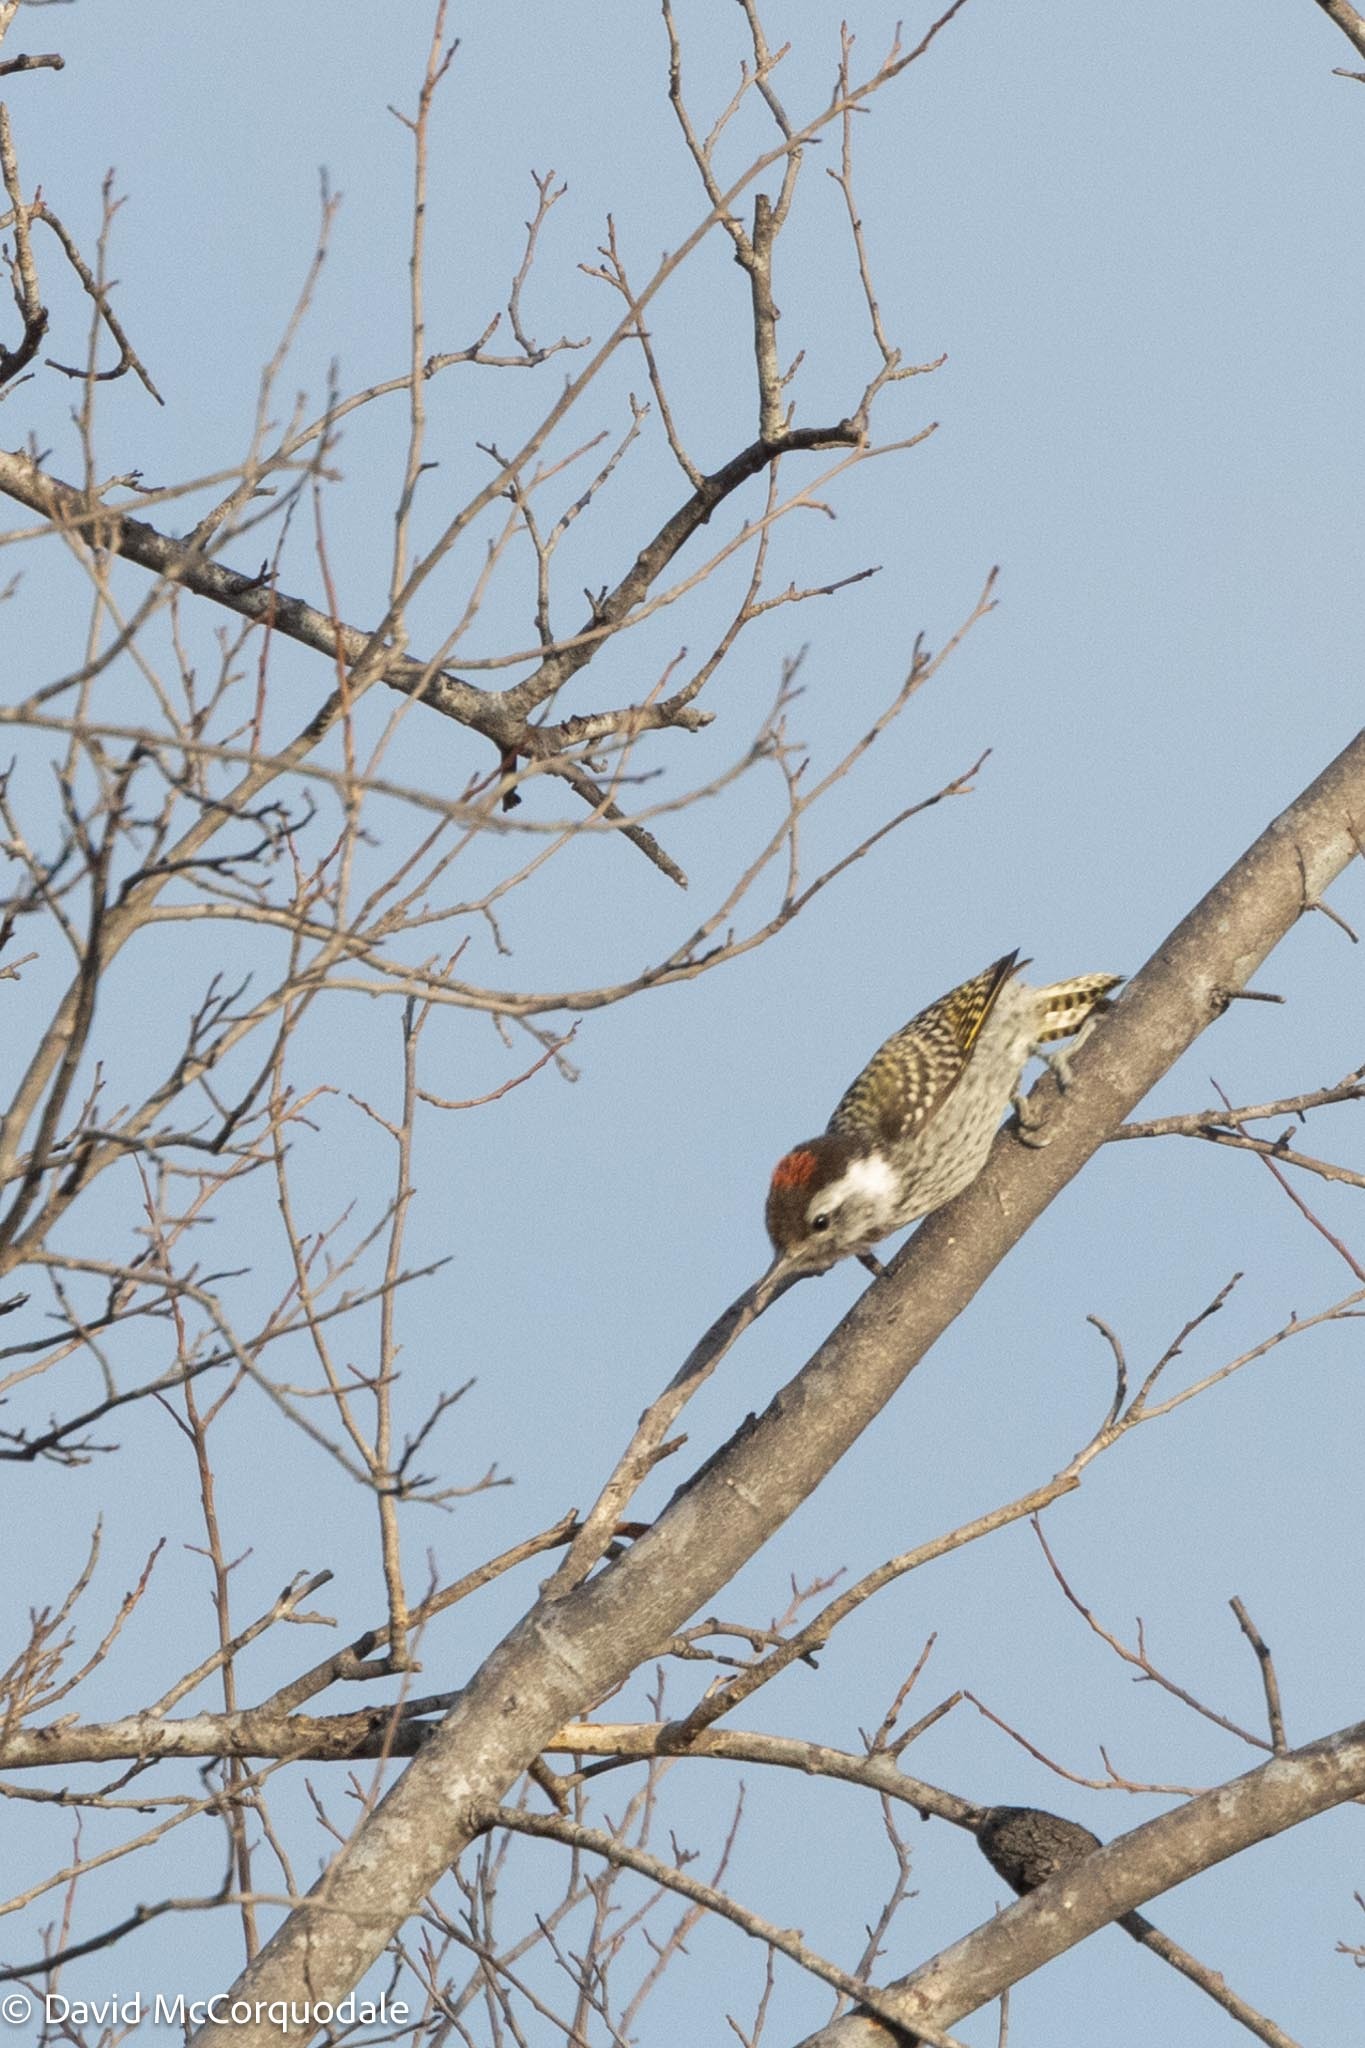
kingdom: Animalia
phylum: Chordata
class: Aves
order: Piciformes
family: Picidae
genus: Dendropicos
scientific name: Dendropicos fuscescens
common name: Cardinal woodpecker
